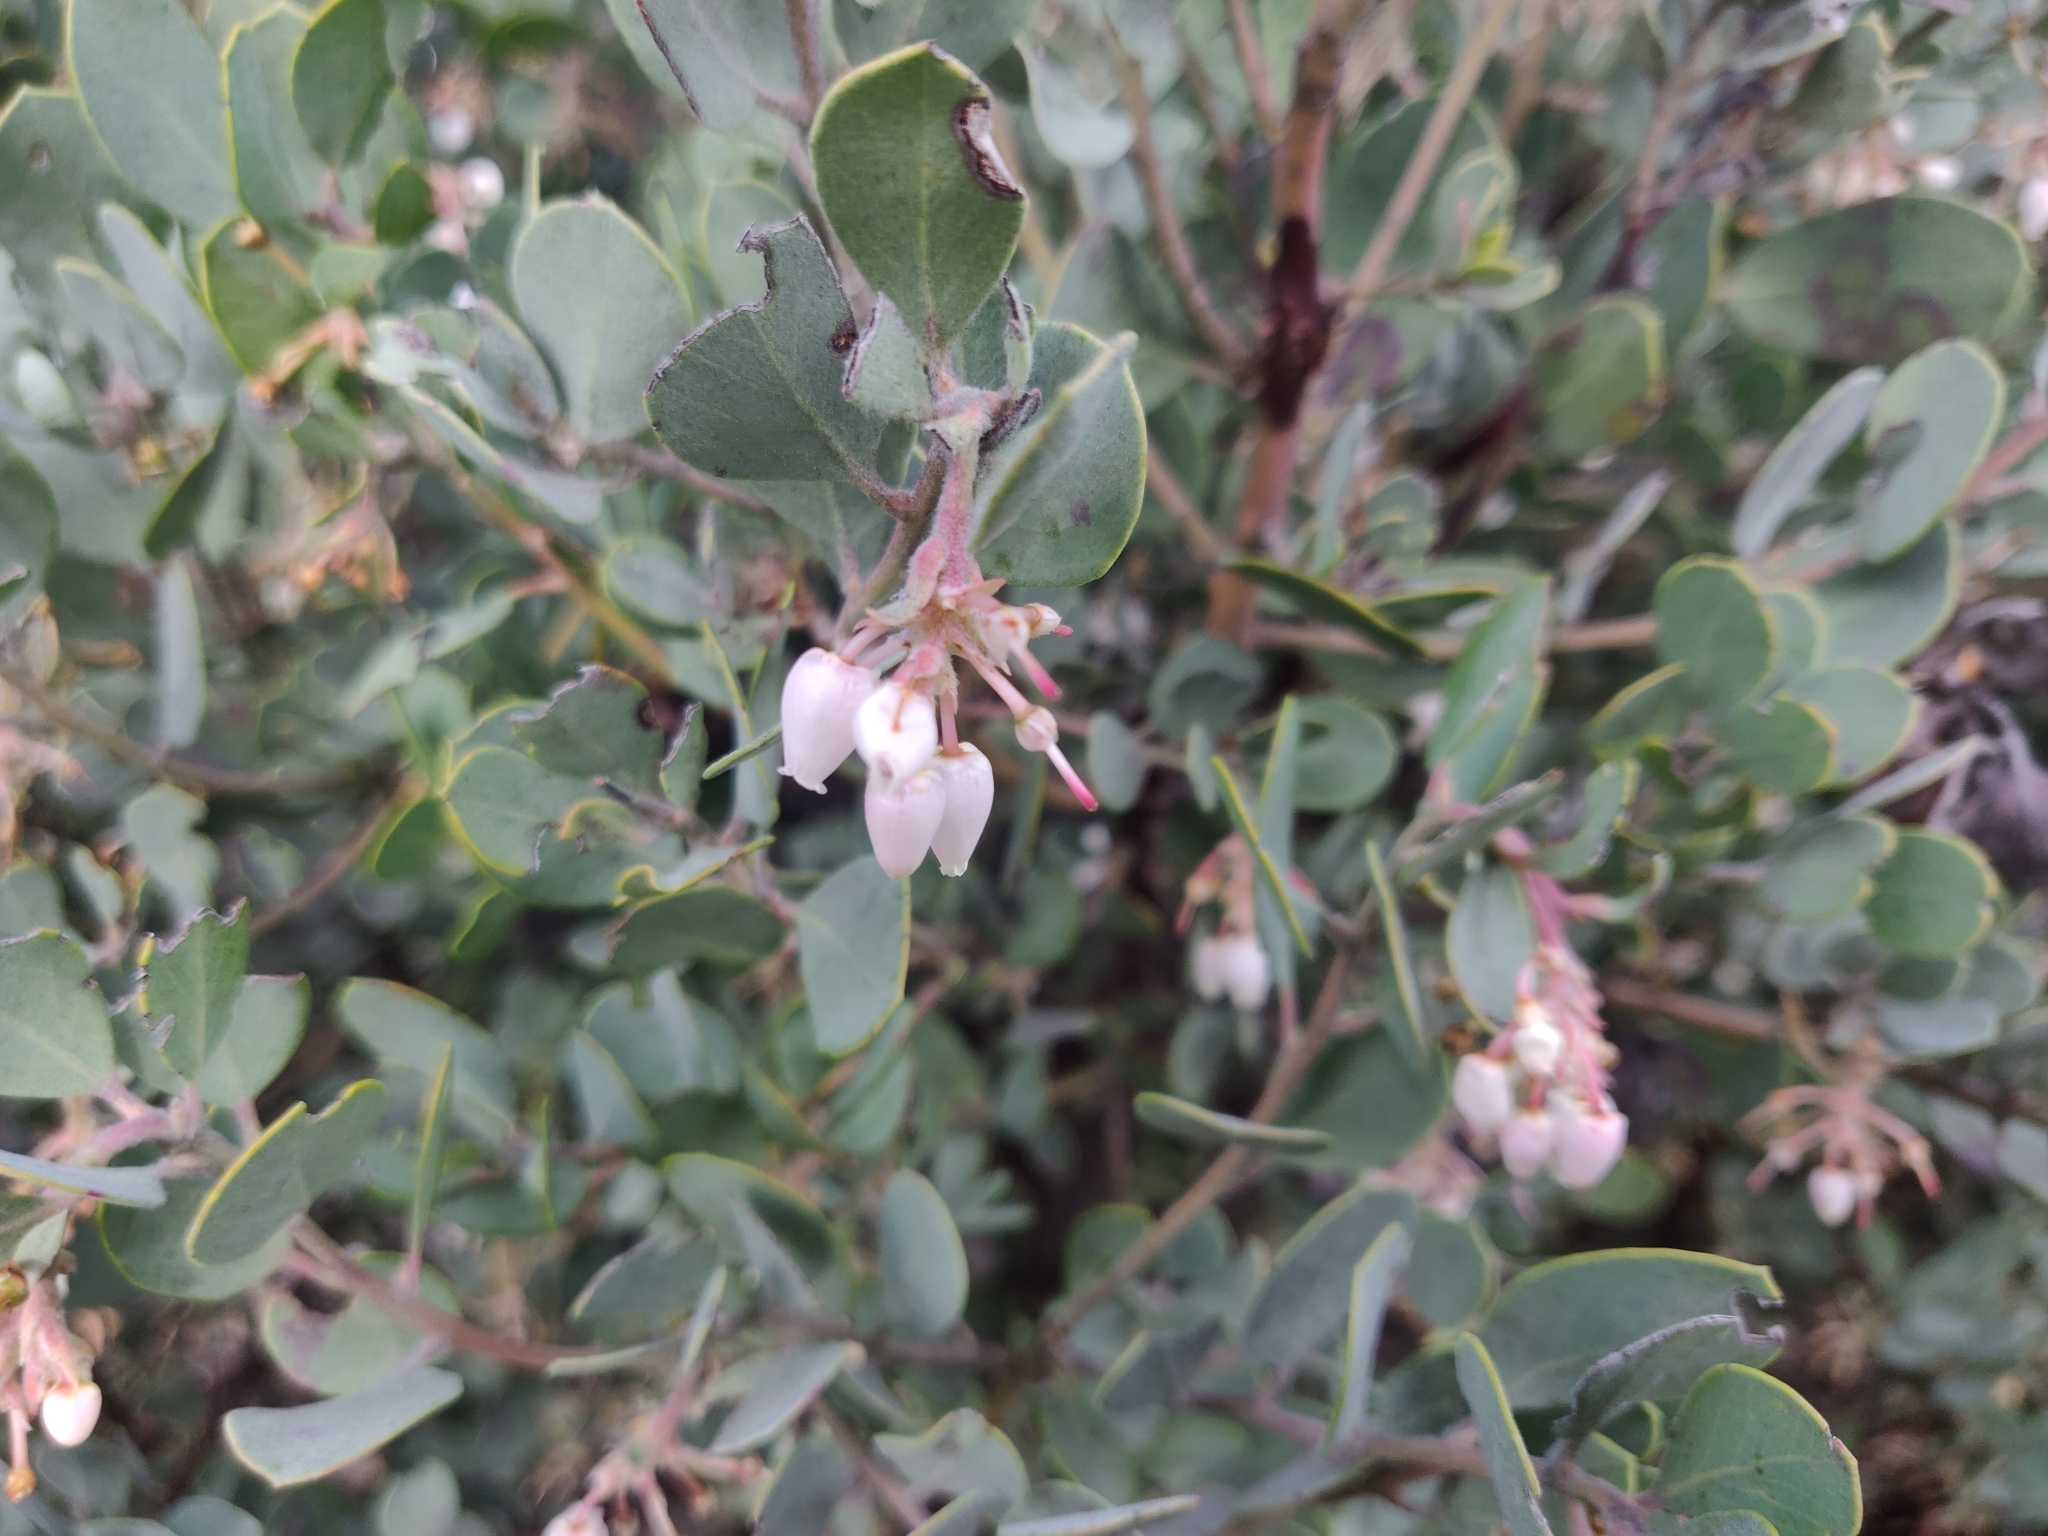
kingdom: Plantae
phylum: Tracheophyta
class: Magnoliopsida
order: Ericales
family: Ericaceae
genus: Arctostaphylos
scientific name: Arctostaphylos silvicola
